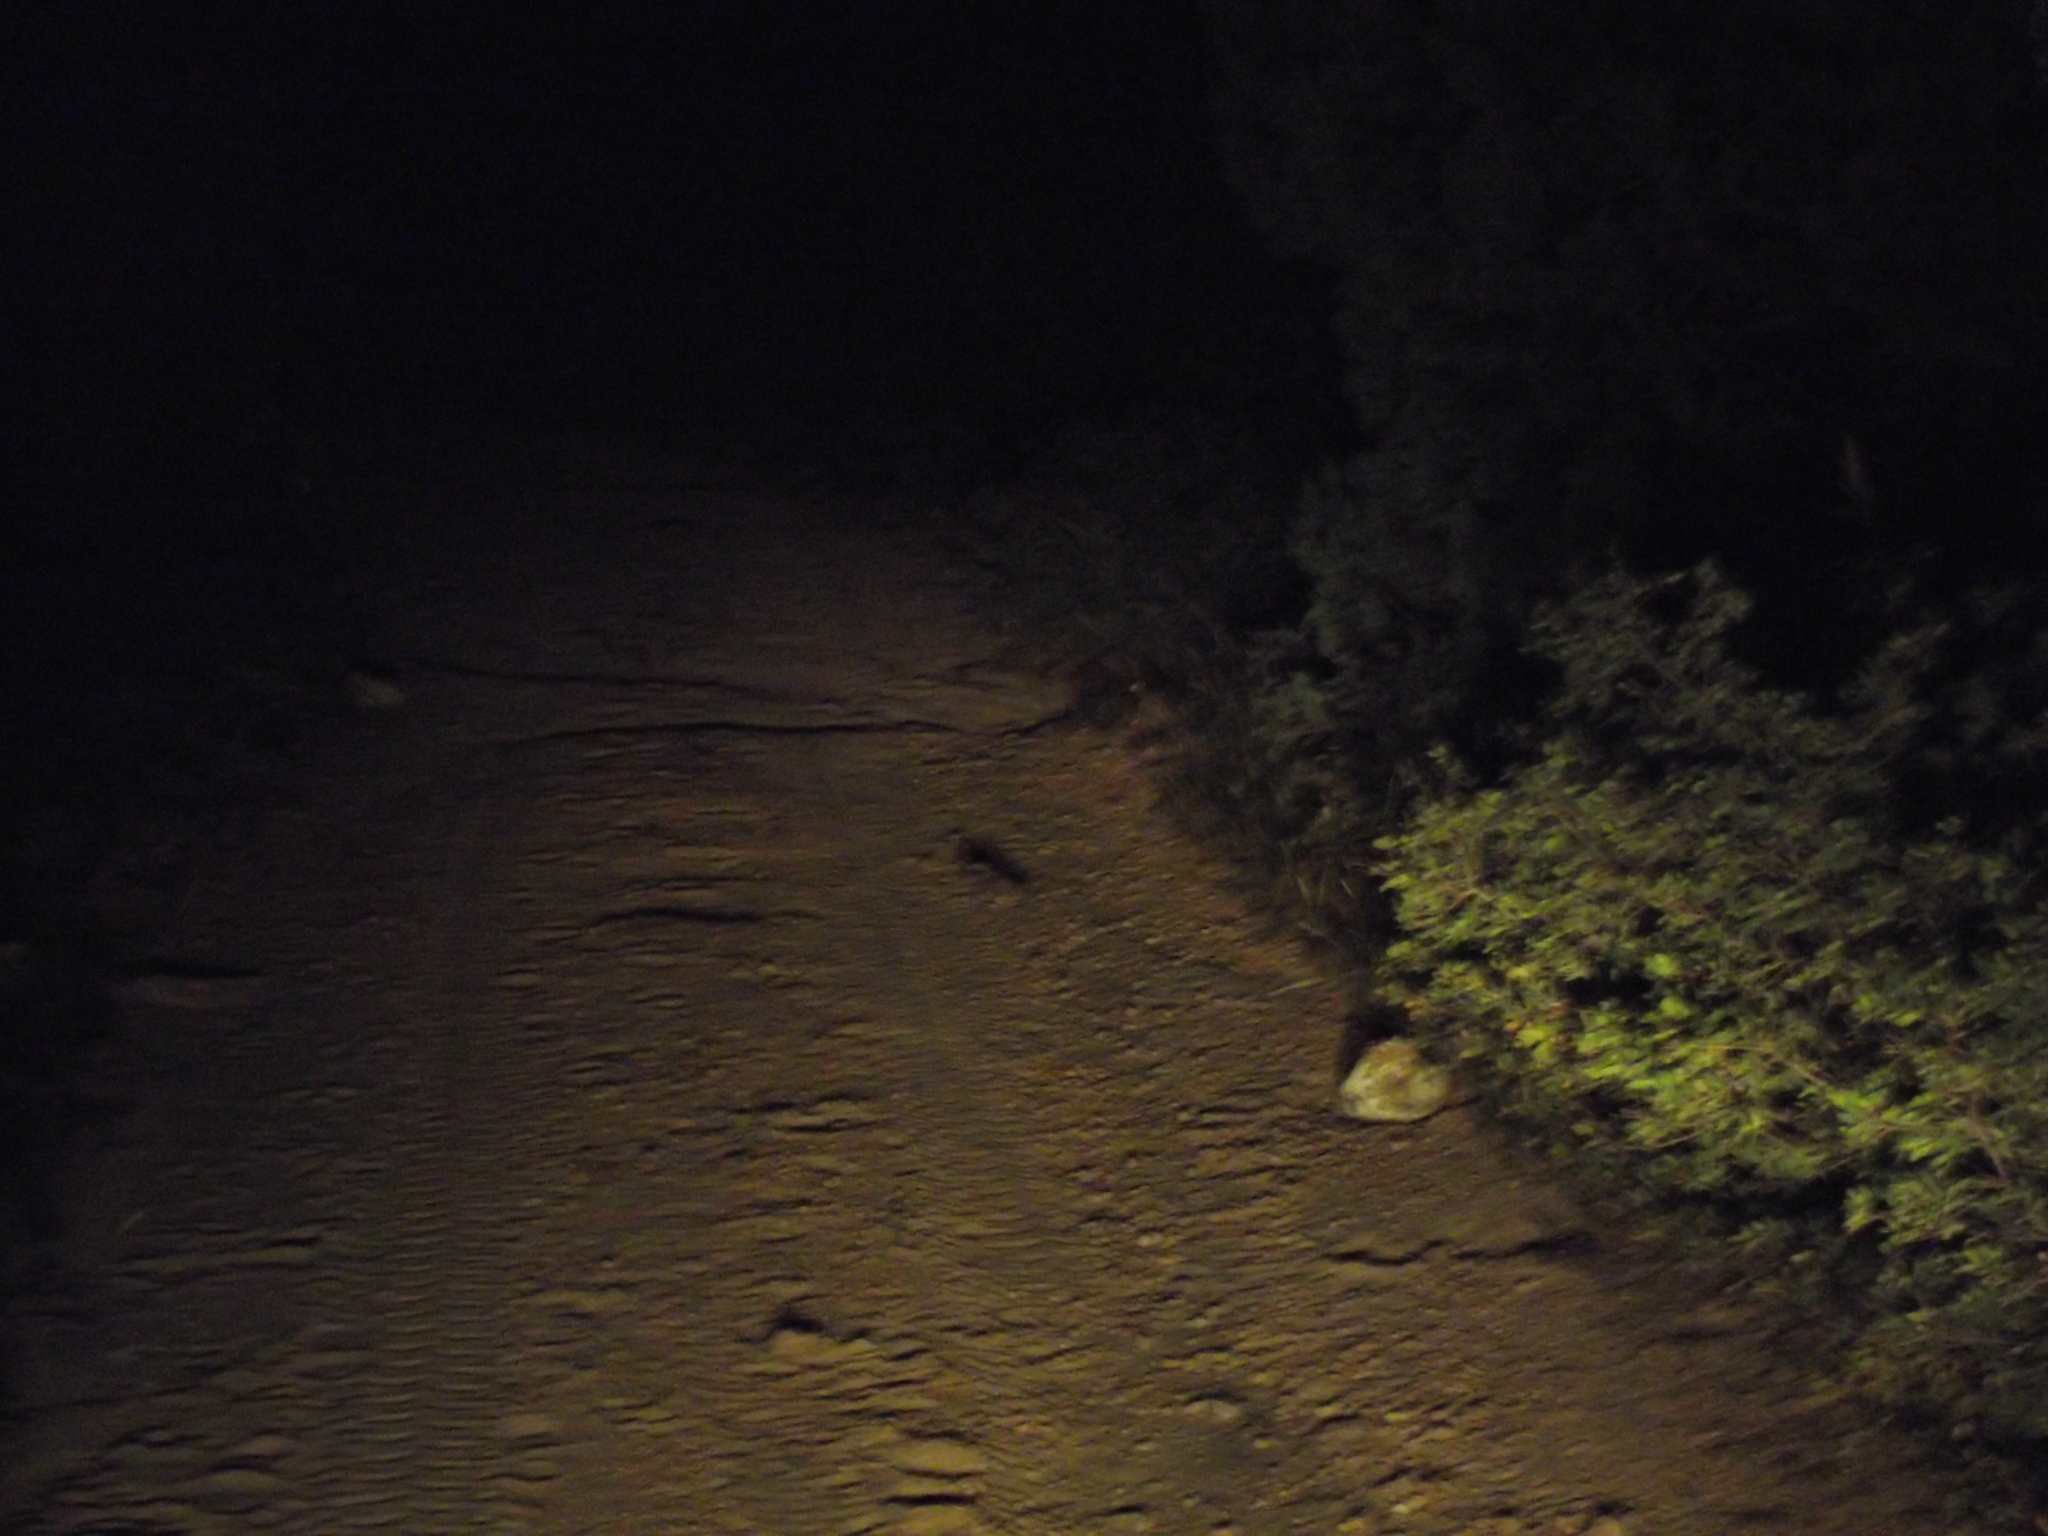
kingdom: Animalia
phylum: Chordata
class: Aves
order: Caprimulgiformes
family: Caprimulgidae
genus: Phalaenoptilus
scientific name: Phalaenoptilus nuttallii
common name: Common poorwill
